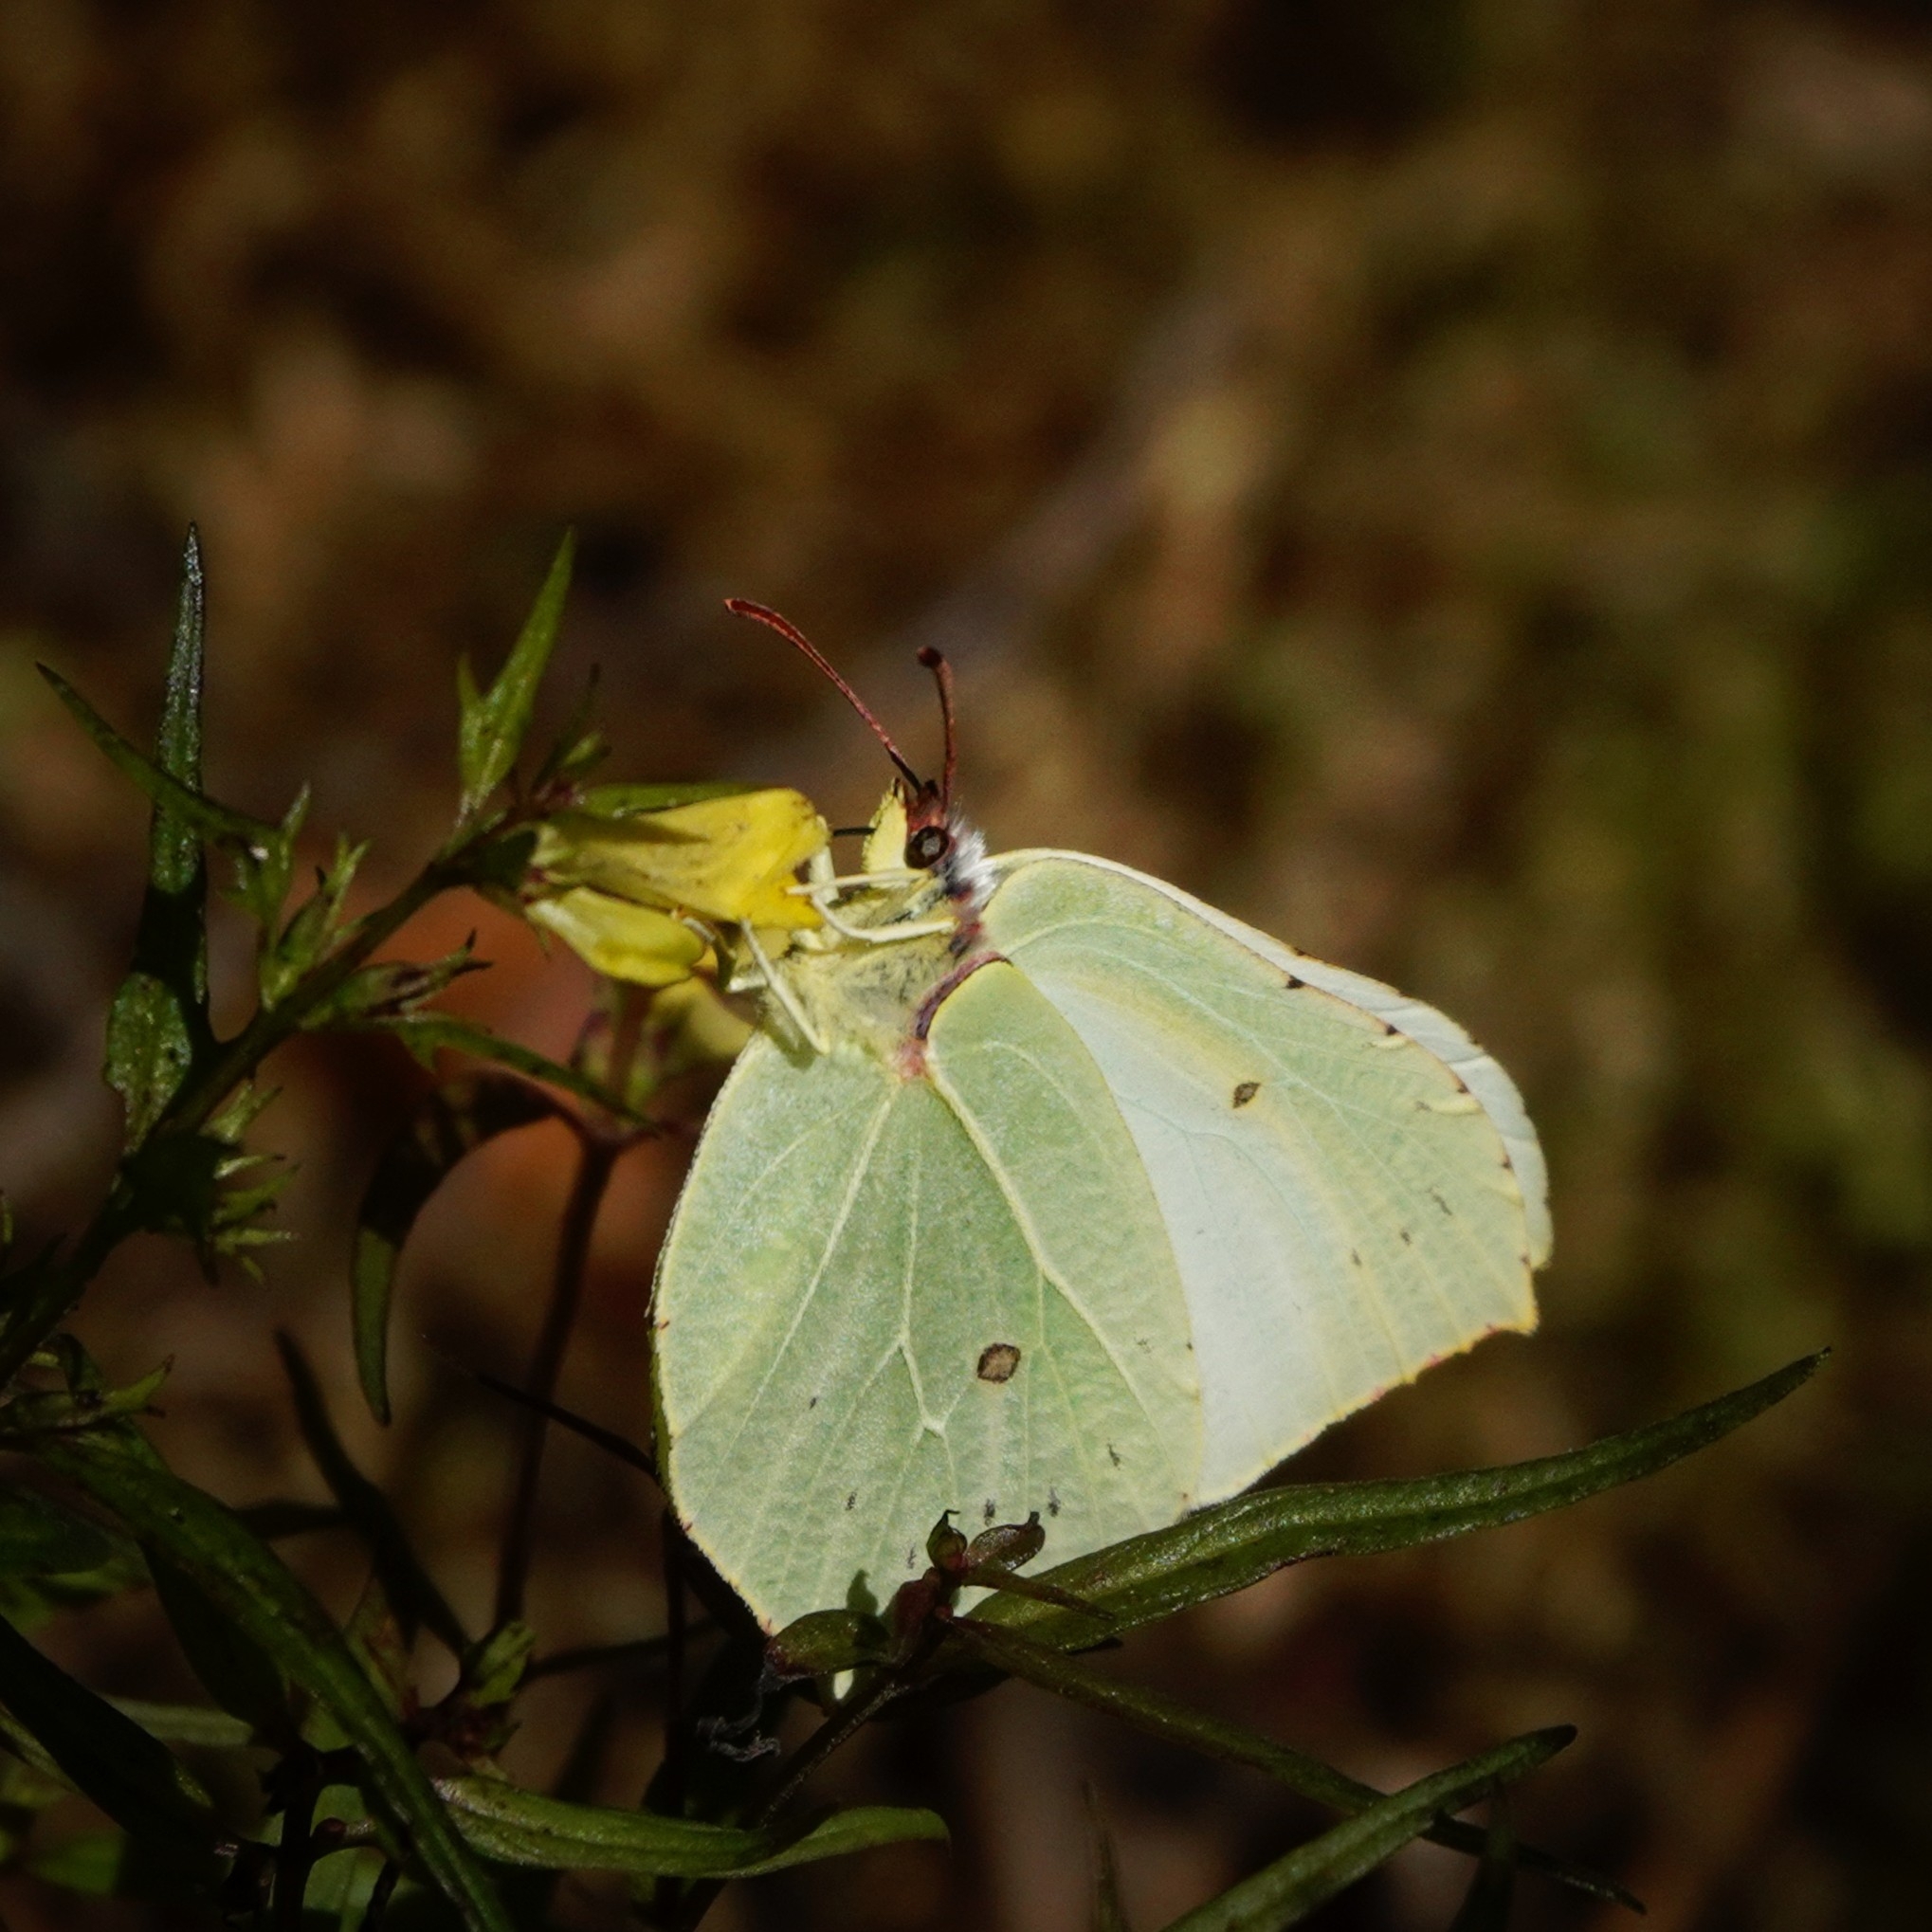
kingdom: Animalia
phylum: Arthropoda
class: Insecta
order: Lepidoptera
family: Pieridae
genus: Gonepteryx
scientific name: Gonepteryx rhamni
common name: Brimstone
